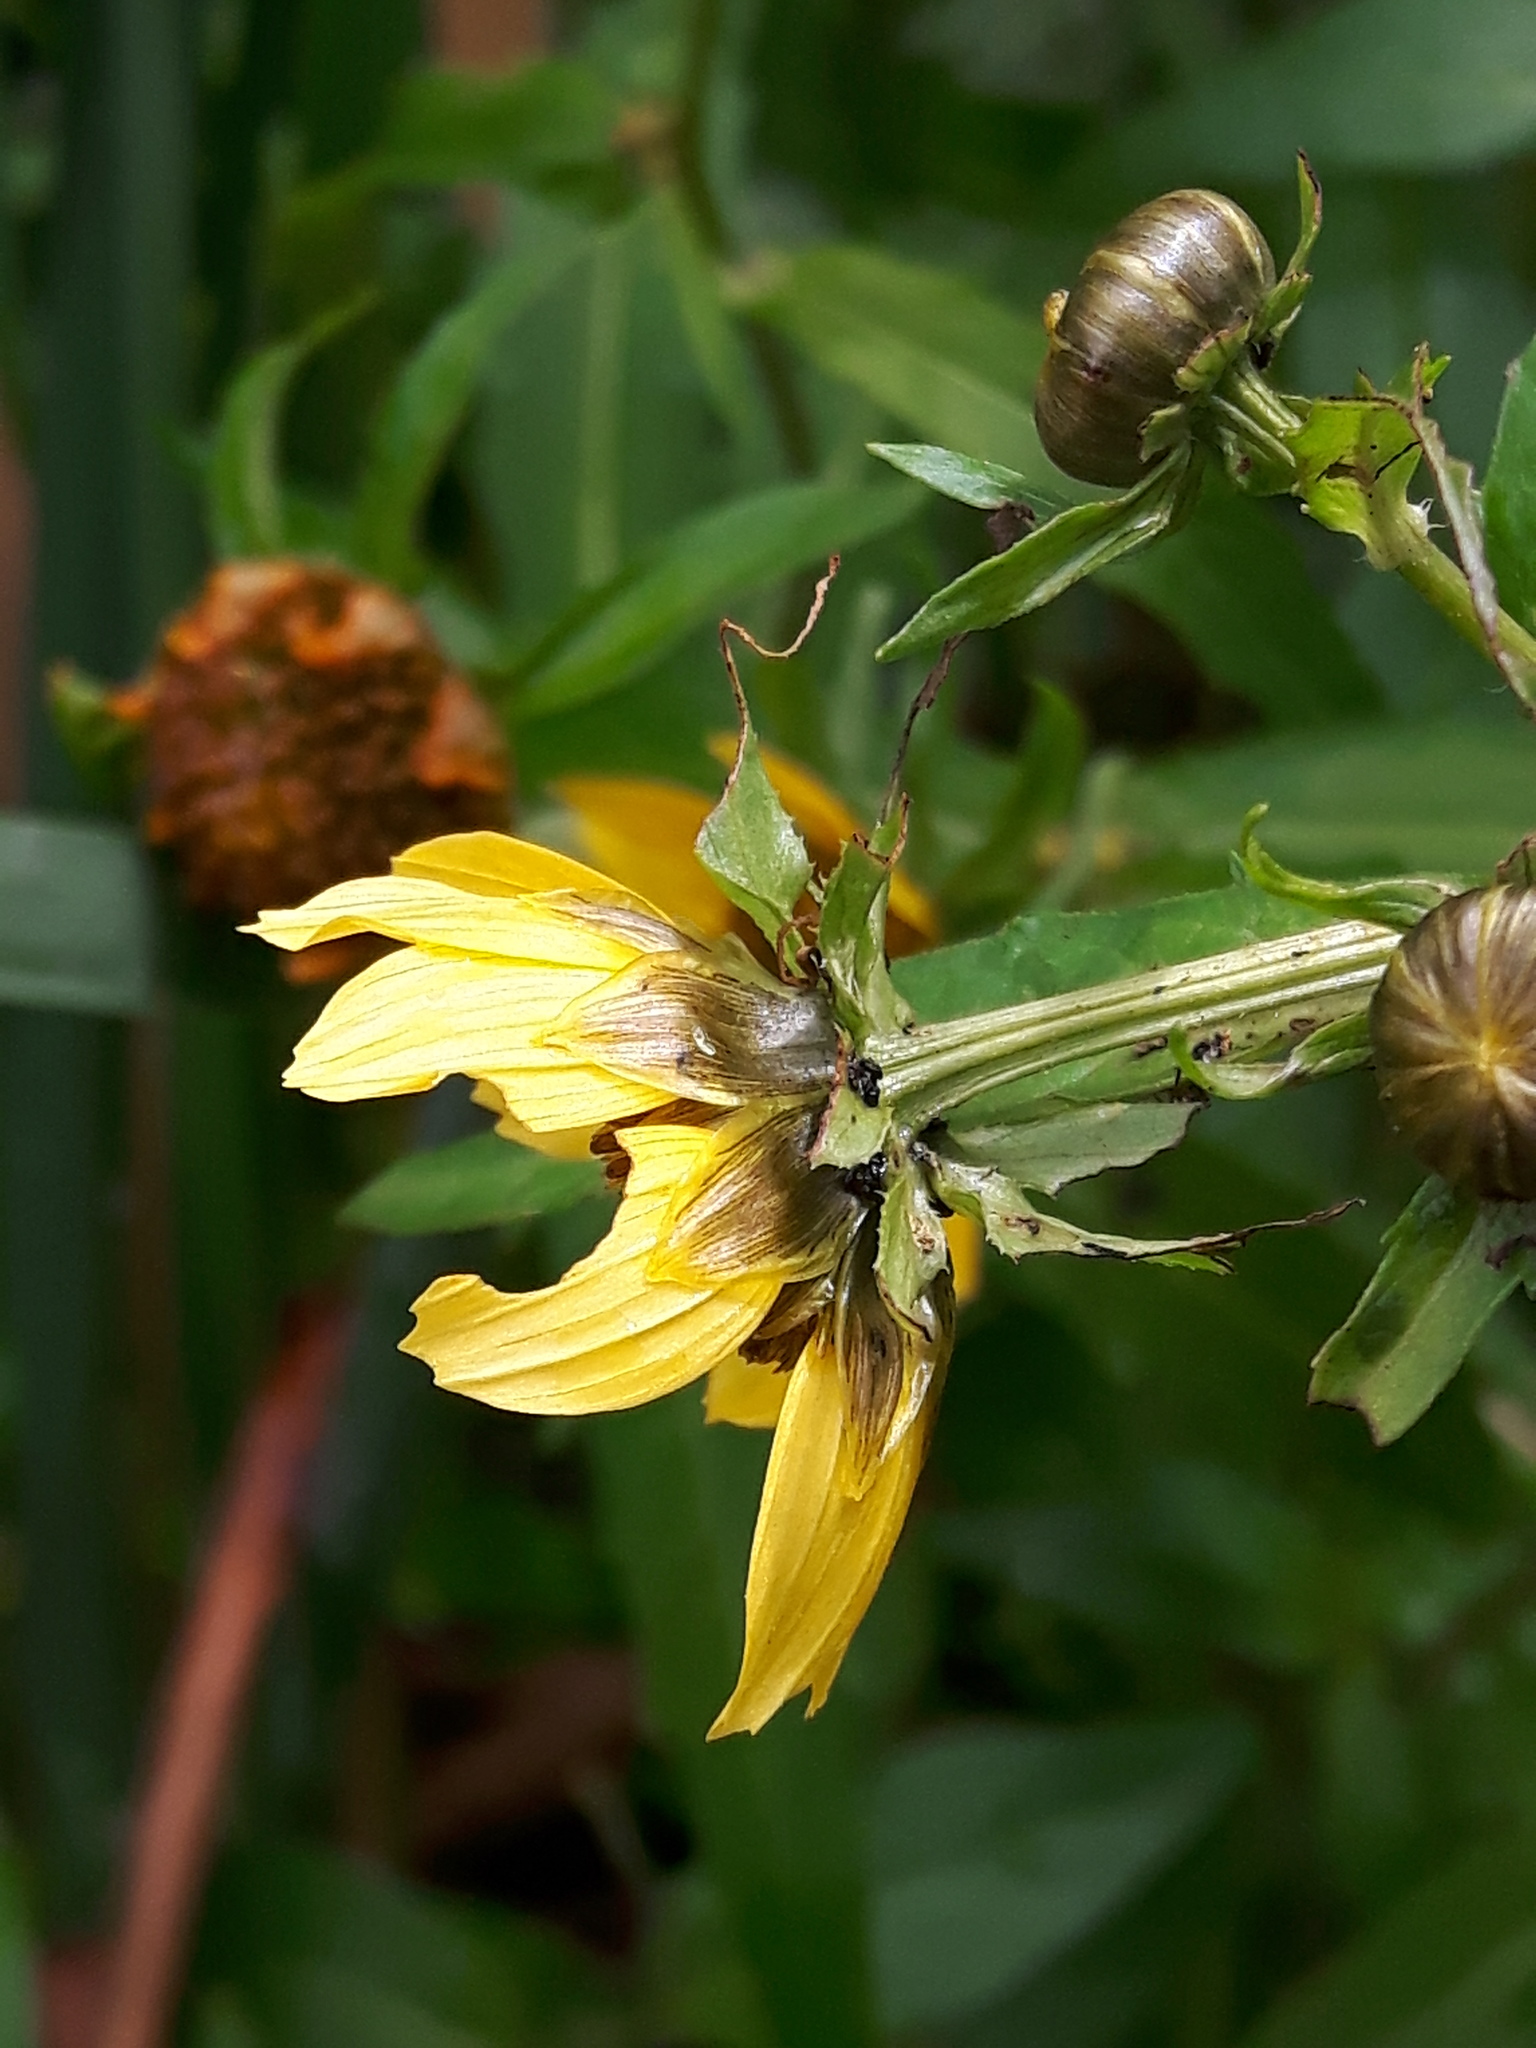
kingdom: Plantae
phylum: Tracheophyta
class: Magnoliopsida
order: Asterales
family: Asteraceae
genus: Bidens
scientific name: Bidens cernua
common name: Nodding bur-marigold
